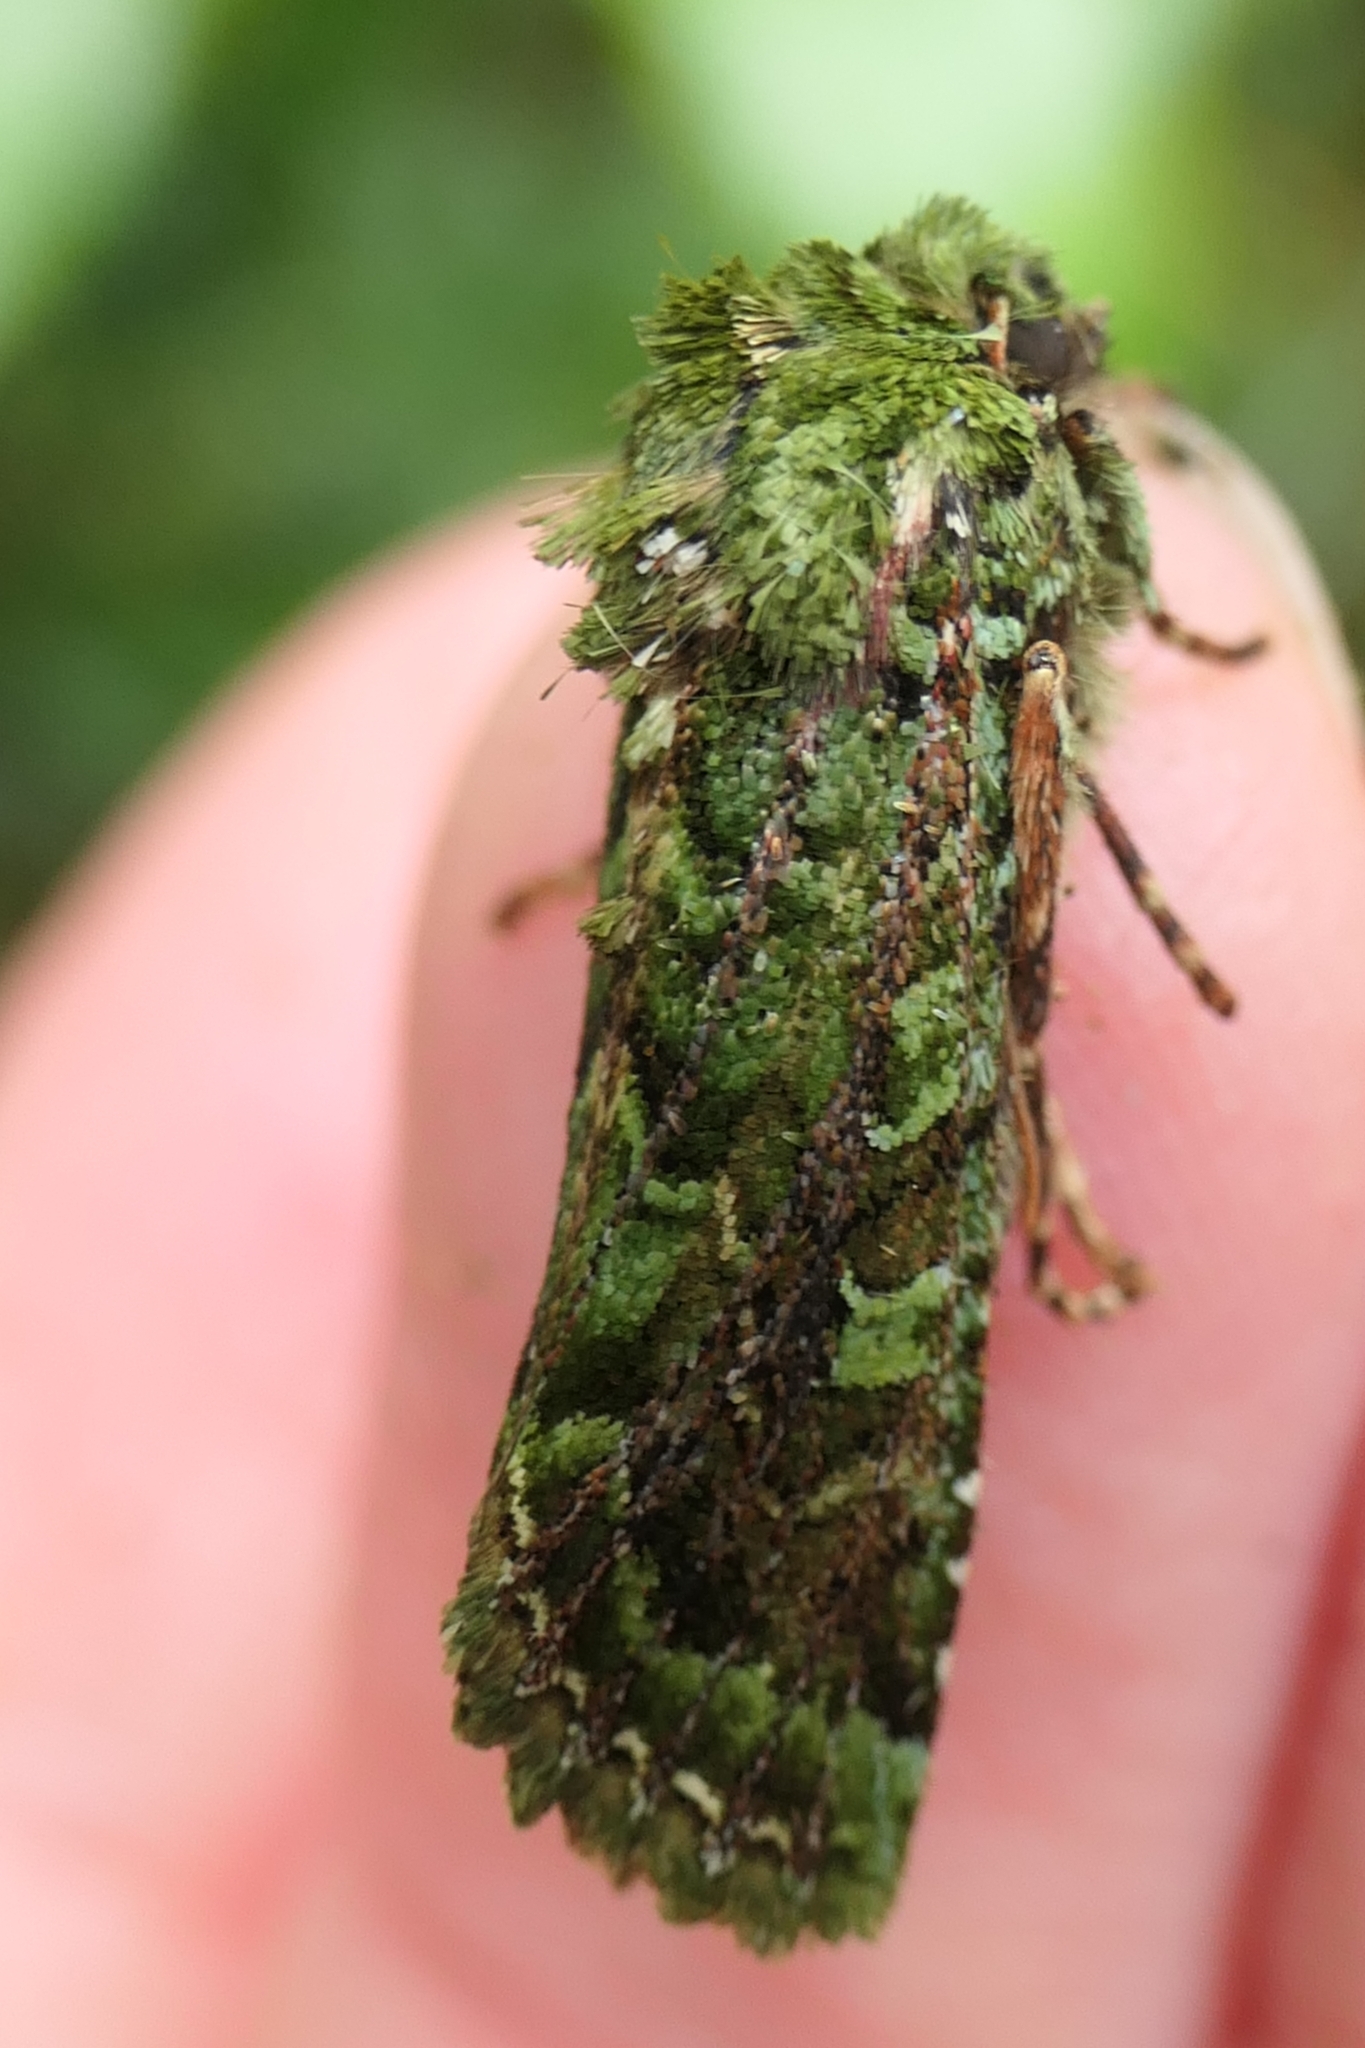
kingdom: Animalia
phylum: Arthropoda
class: Insecta
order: Lepidoptera
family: Noctuidae
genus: Feredayia
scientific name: Feredayia grammosa
